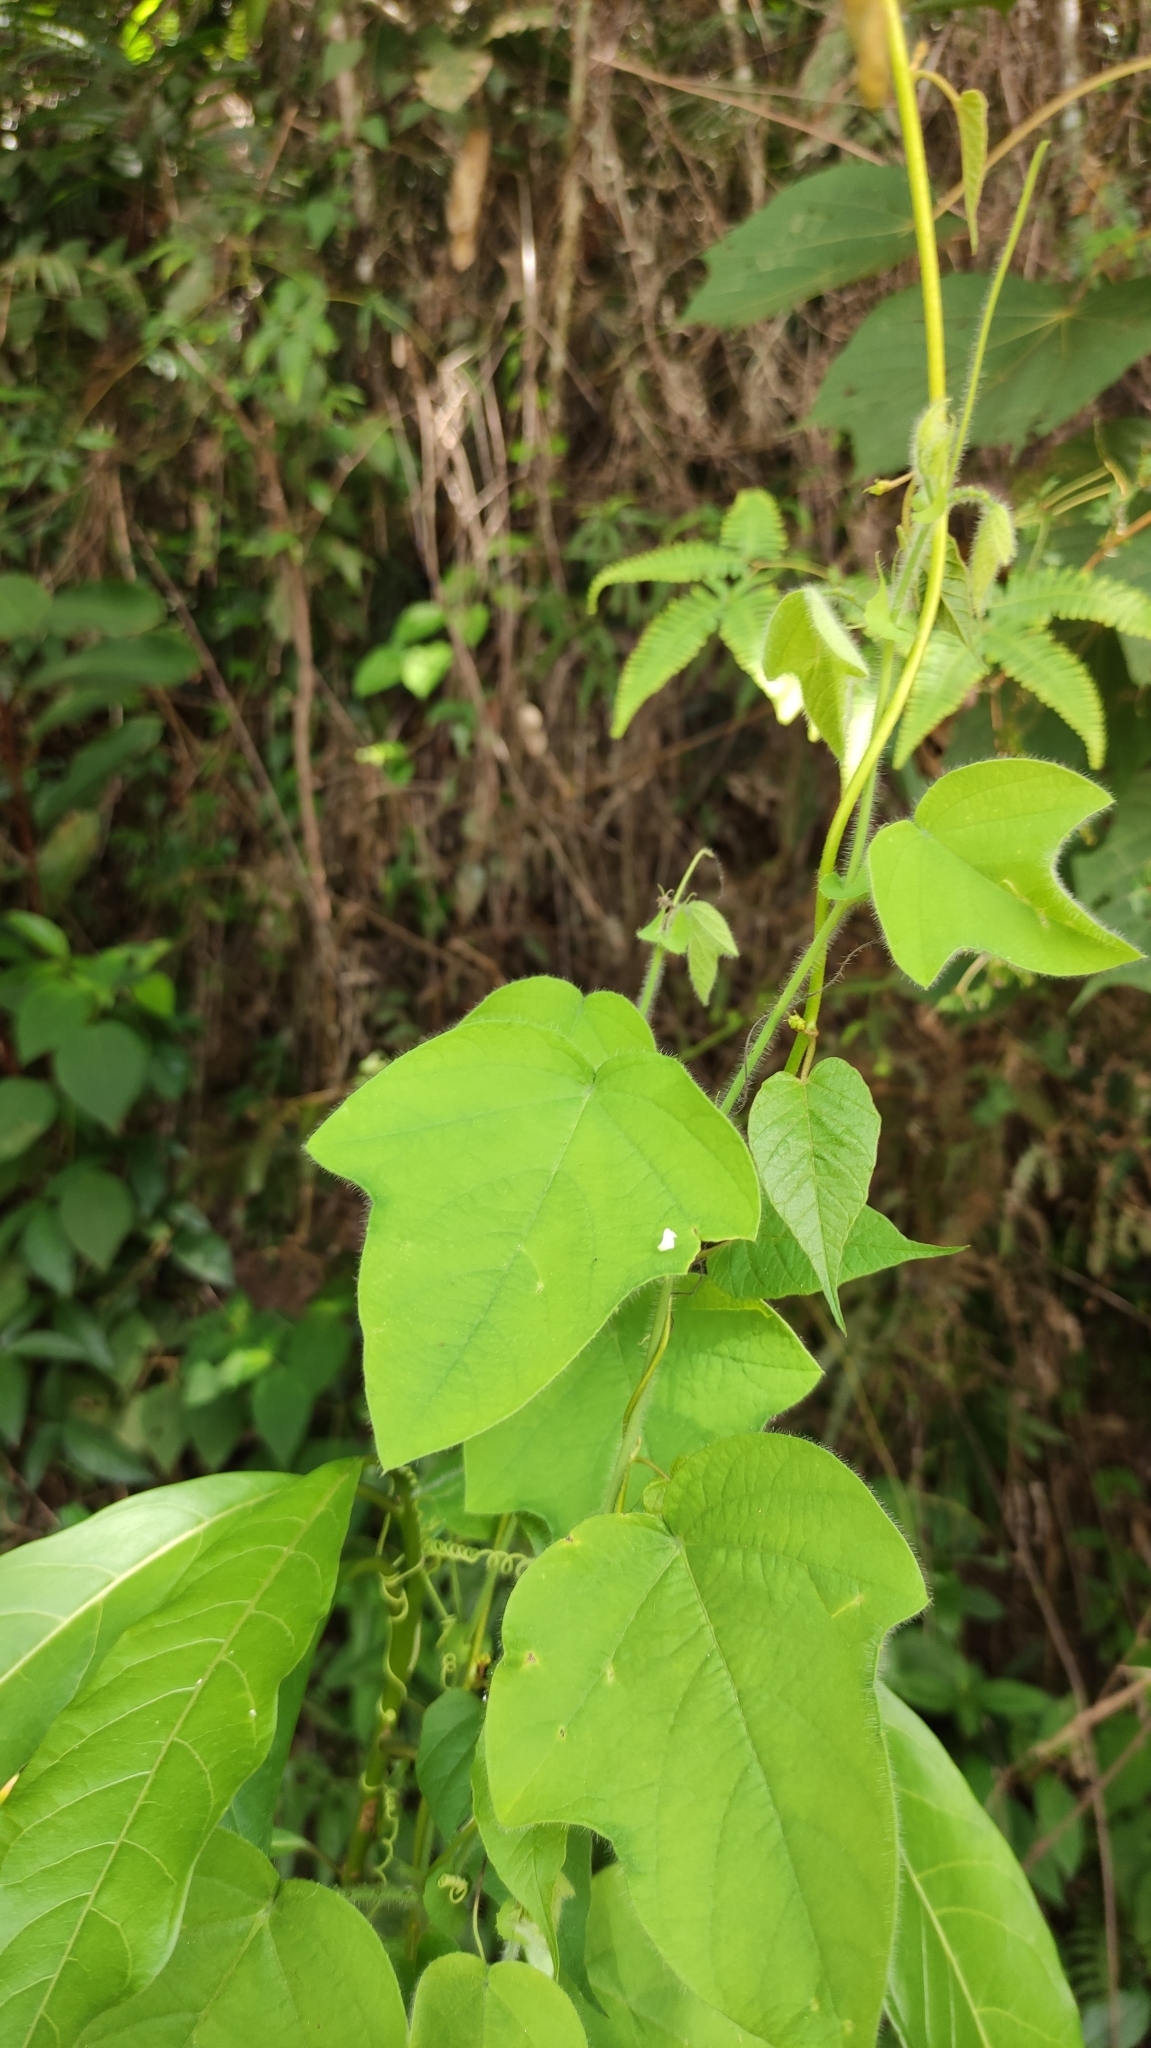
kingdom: Plantae
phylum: Tracheophyta
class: Magnoliopsida
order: Malpighiales
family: Passifloraceae
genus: Passiflora
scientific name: Passiflora menispermifolia
